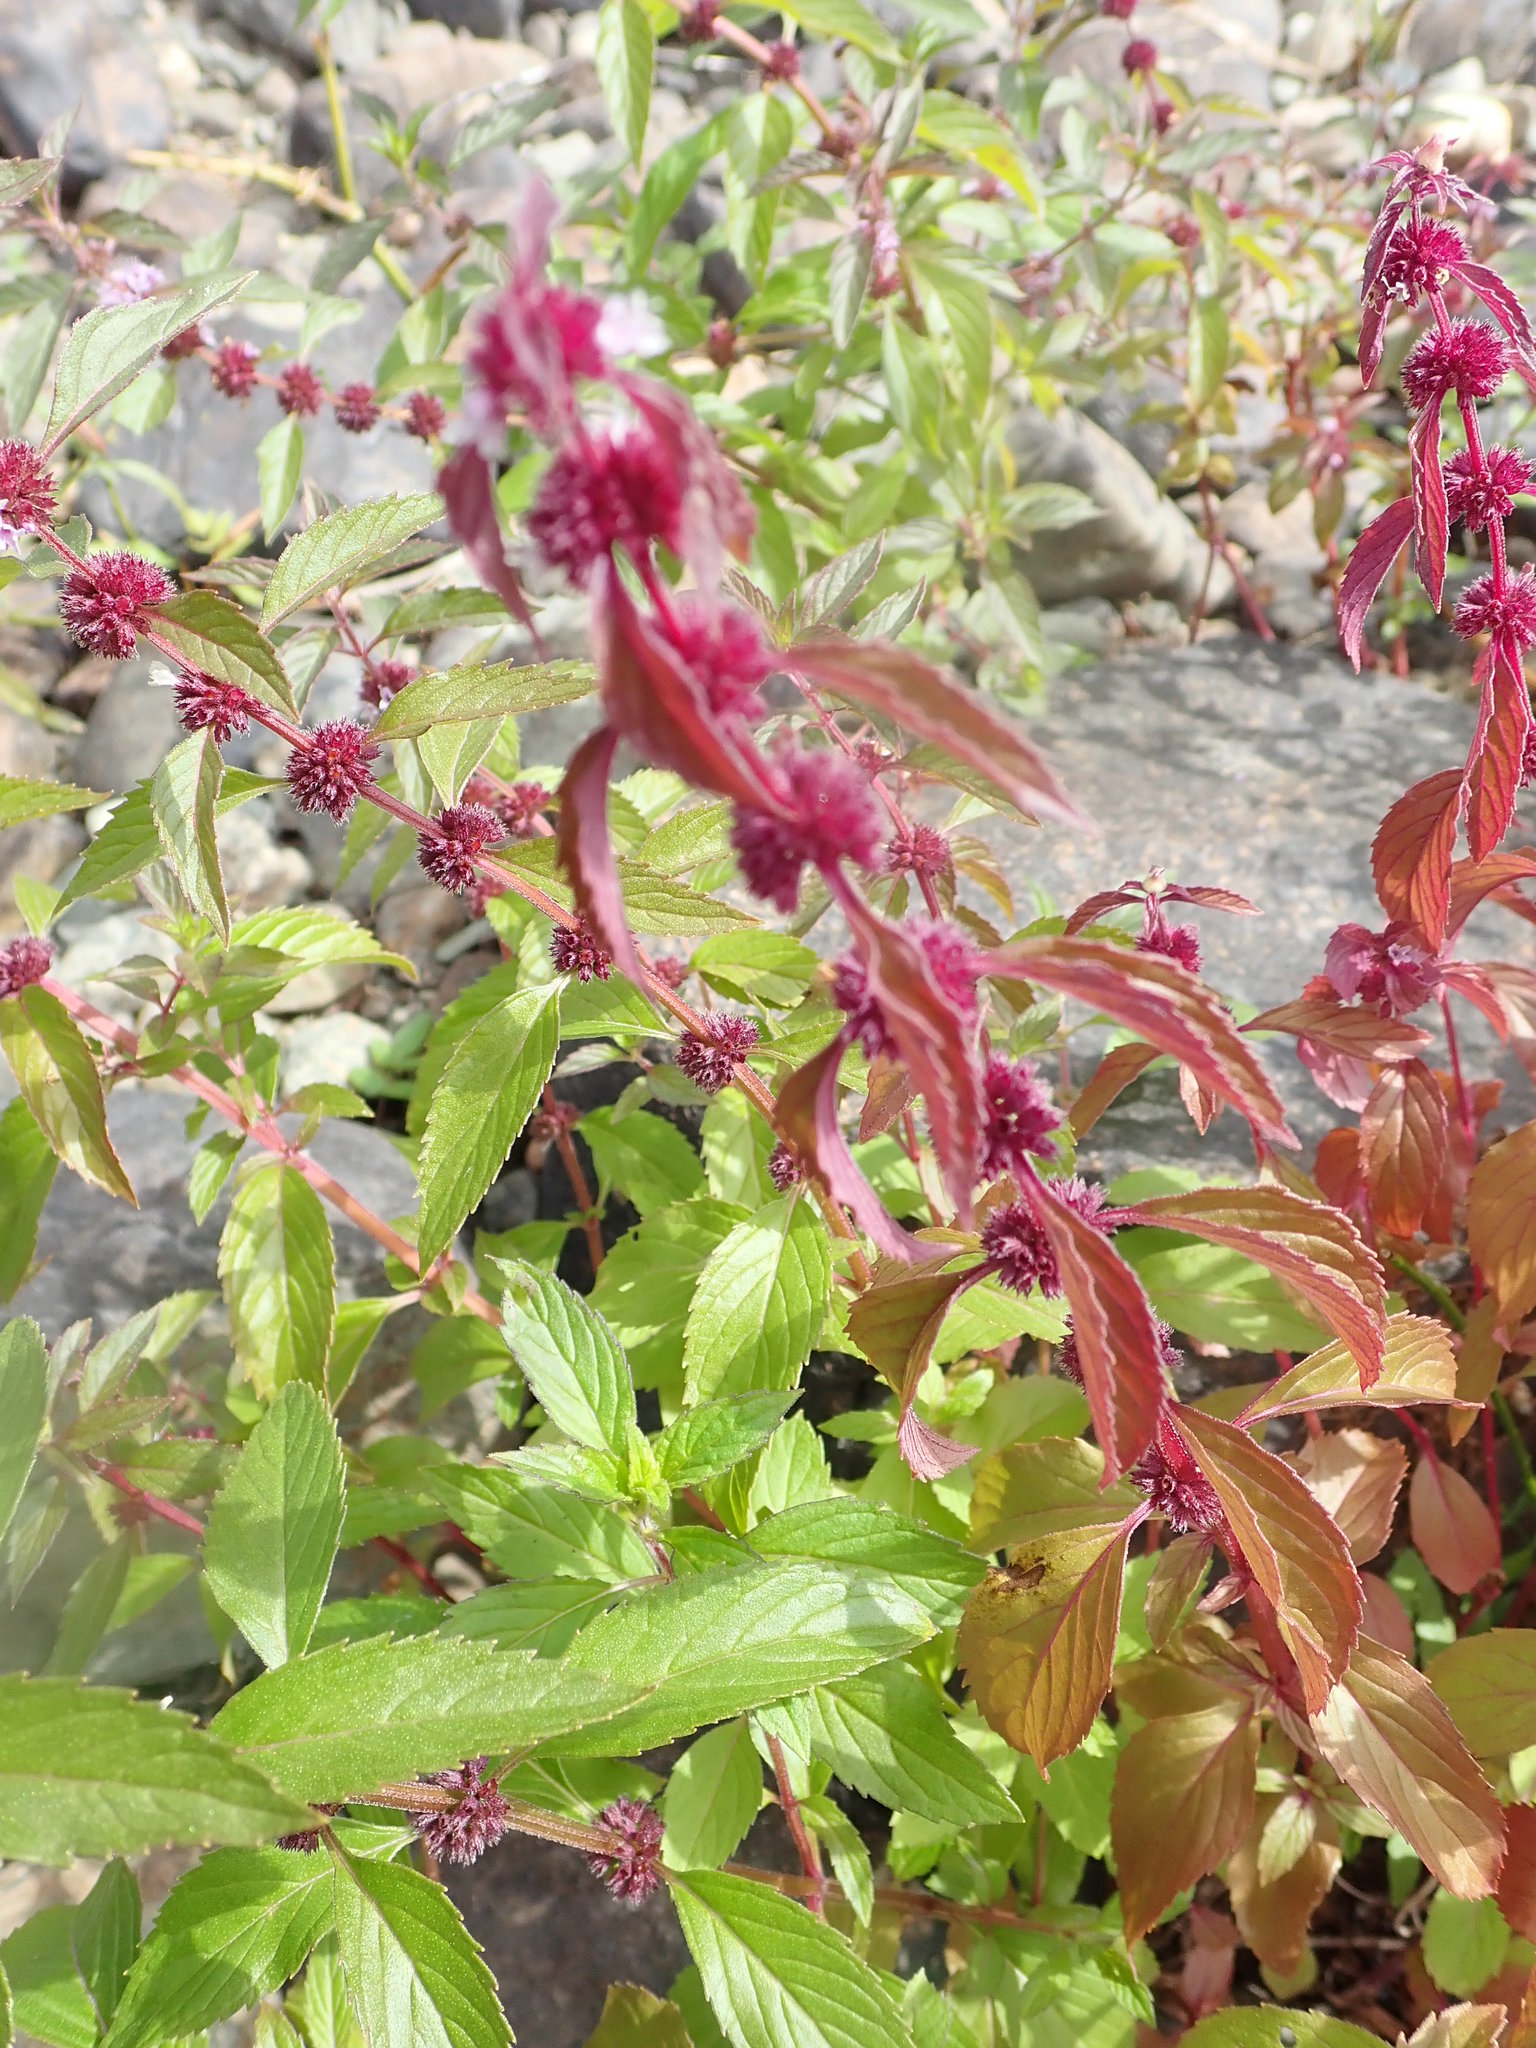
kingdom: Plantae
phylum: Tracheophyta
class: Magnoliopsida
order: Lamiales
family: Lamiaceae
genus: Mentha
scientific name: Mentha arvensis
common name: Corn mint
